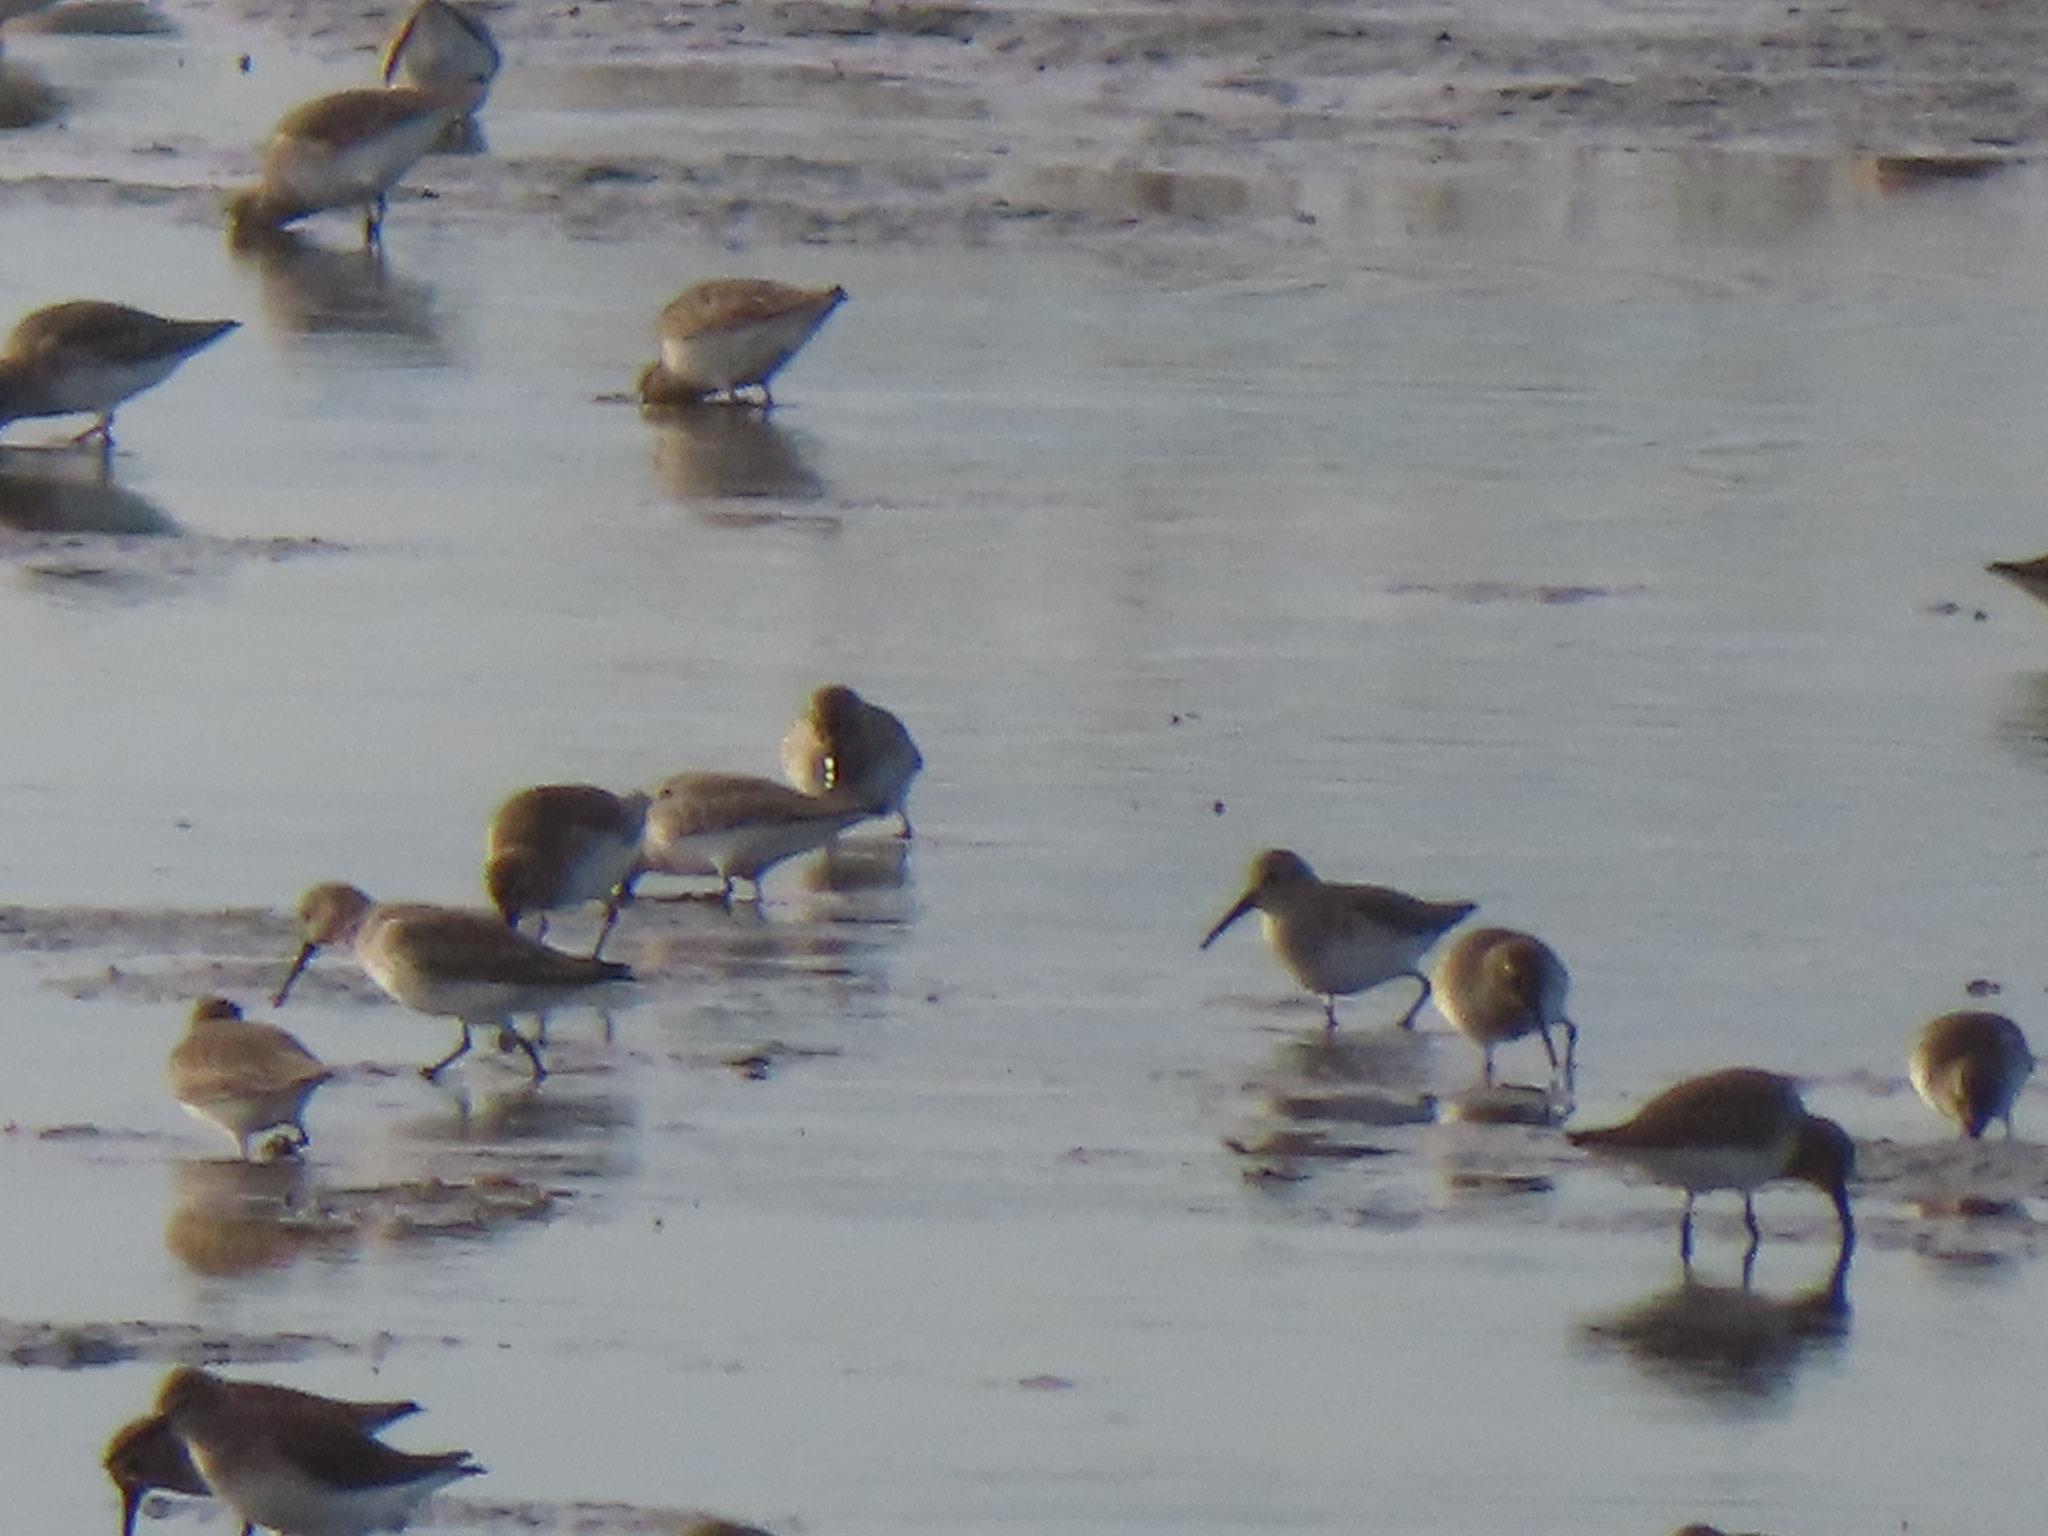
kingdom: Animalia
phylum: Chordata
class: Aves
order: Charadriiformes
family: Scolopacidae
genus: Calidris
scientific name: Calidris alpina
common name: Dunlin
